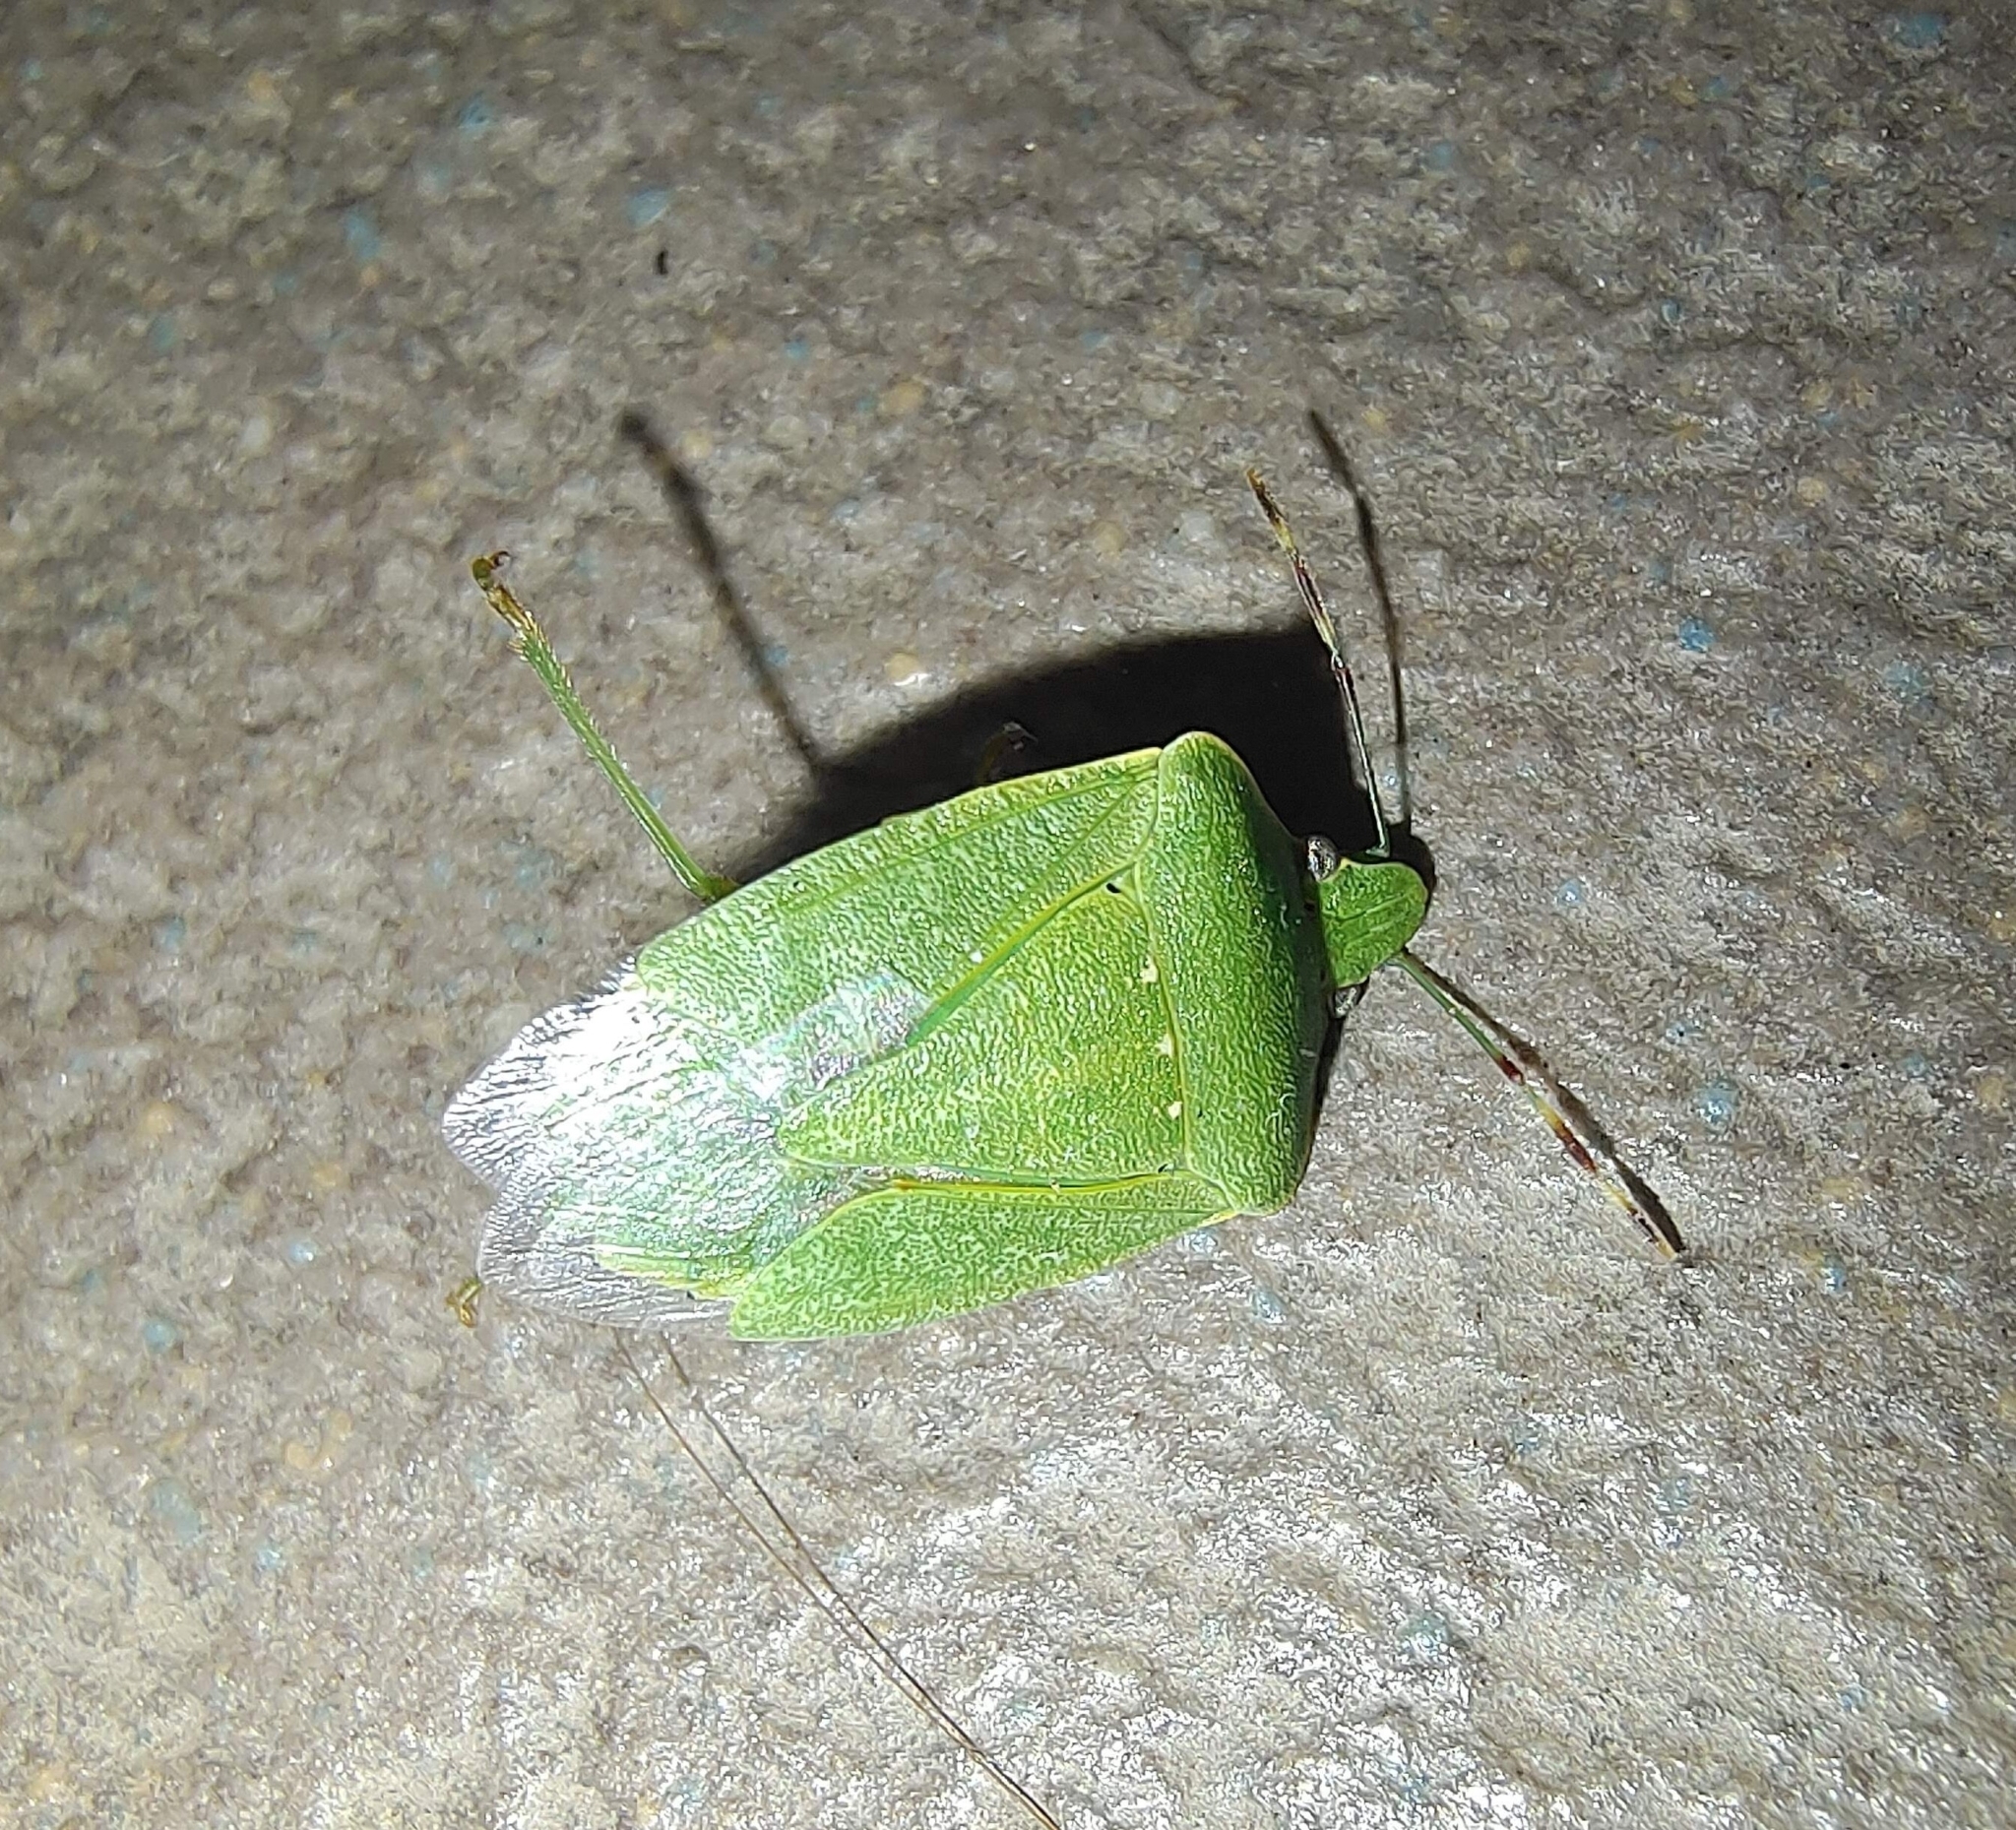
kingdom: Animalia
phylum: Arthropoda
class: Insecta
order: Hemiptera
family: Pentatomidae
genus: Nezara
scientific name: Nezara viridula
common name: Southern green stink bug
